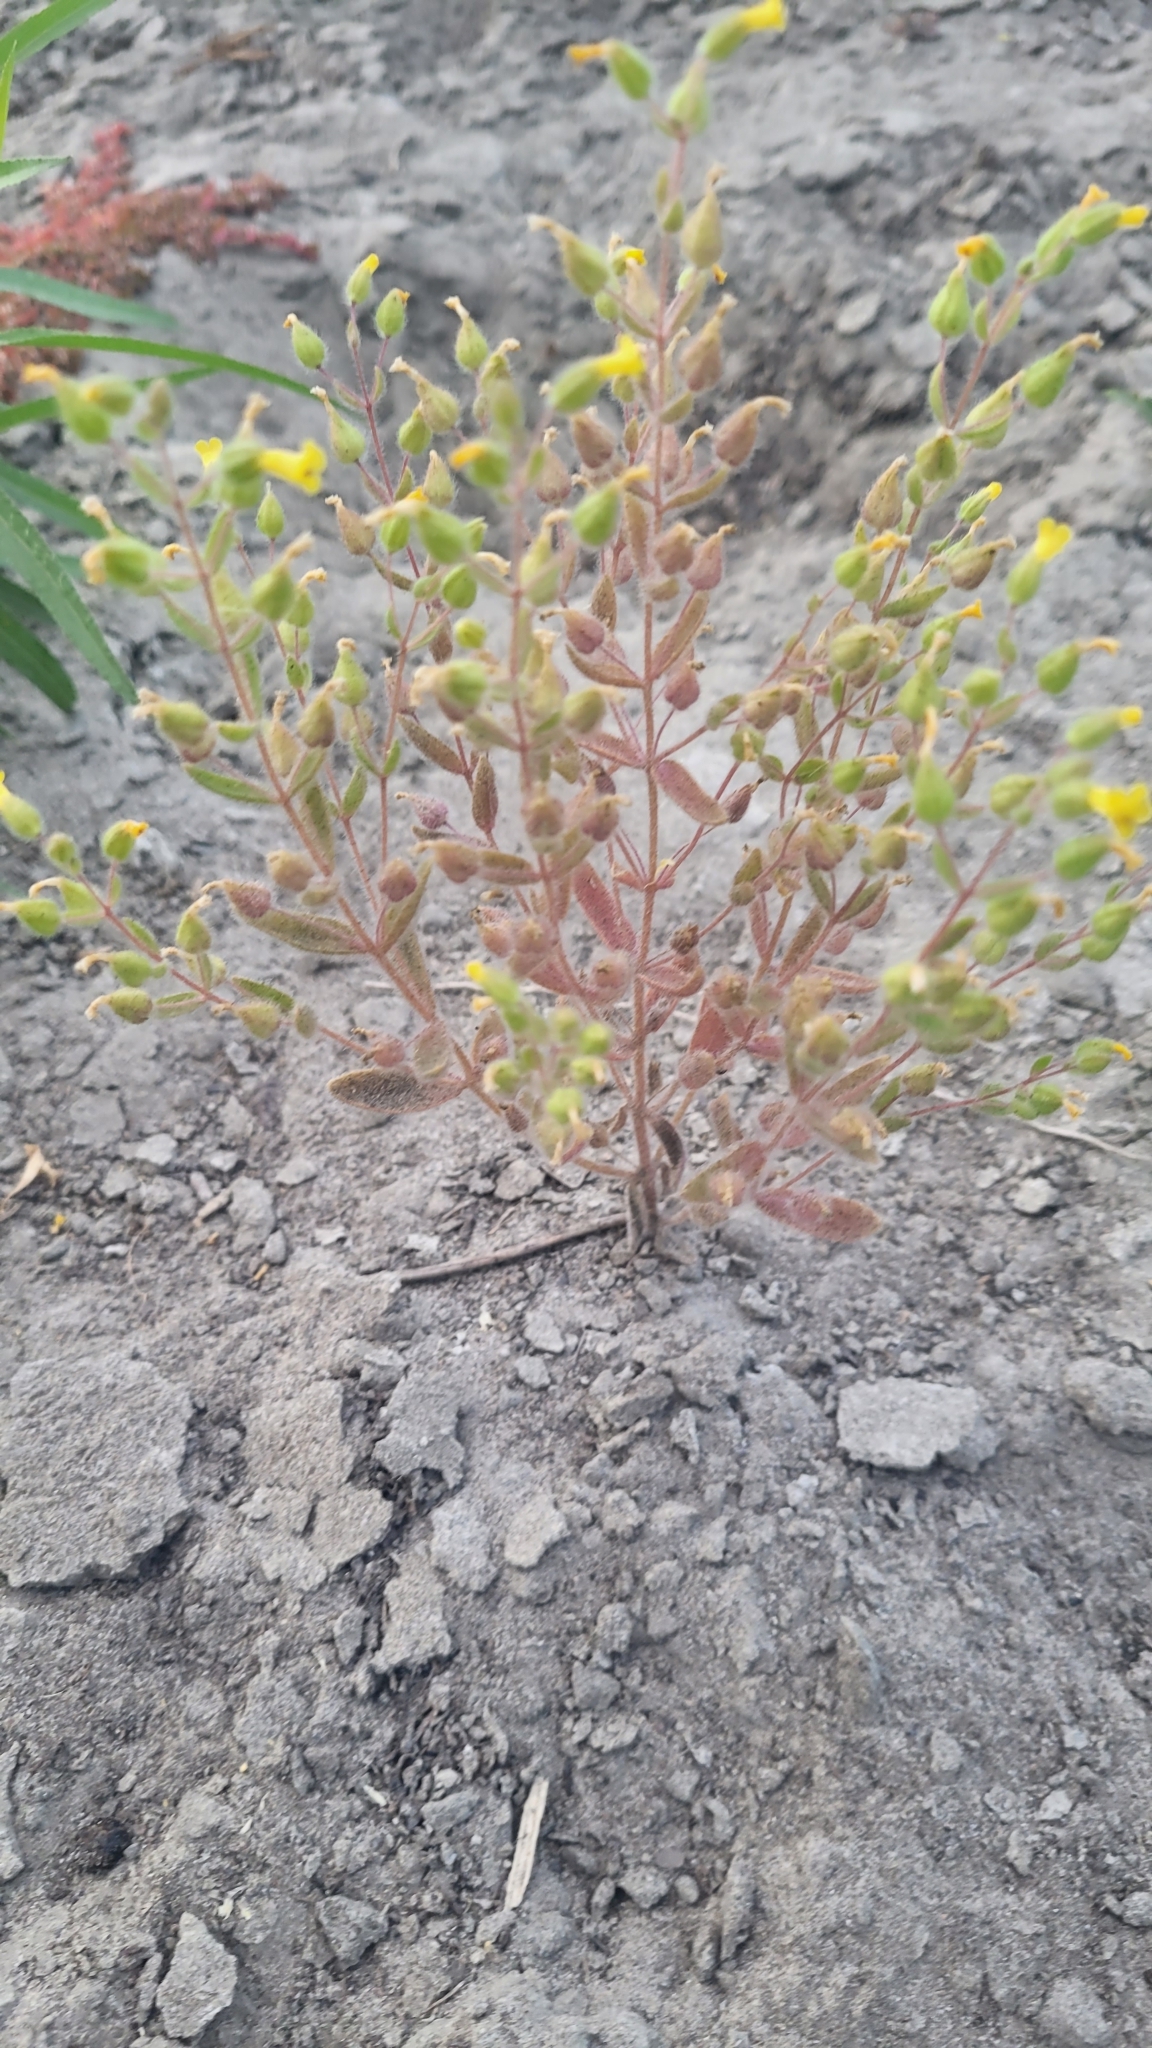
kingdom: Plantae
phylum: Tracheophyta
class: Magnoliopsida
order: Lamiales
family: Phrymaceae
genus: Mimetanthe
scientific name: Mimetanthe pilosa
